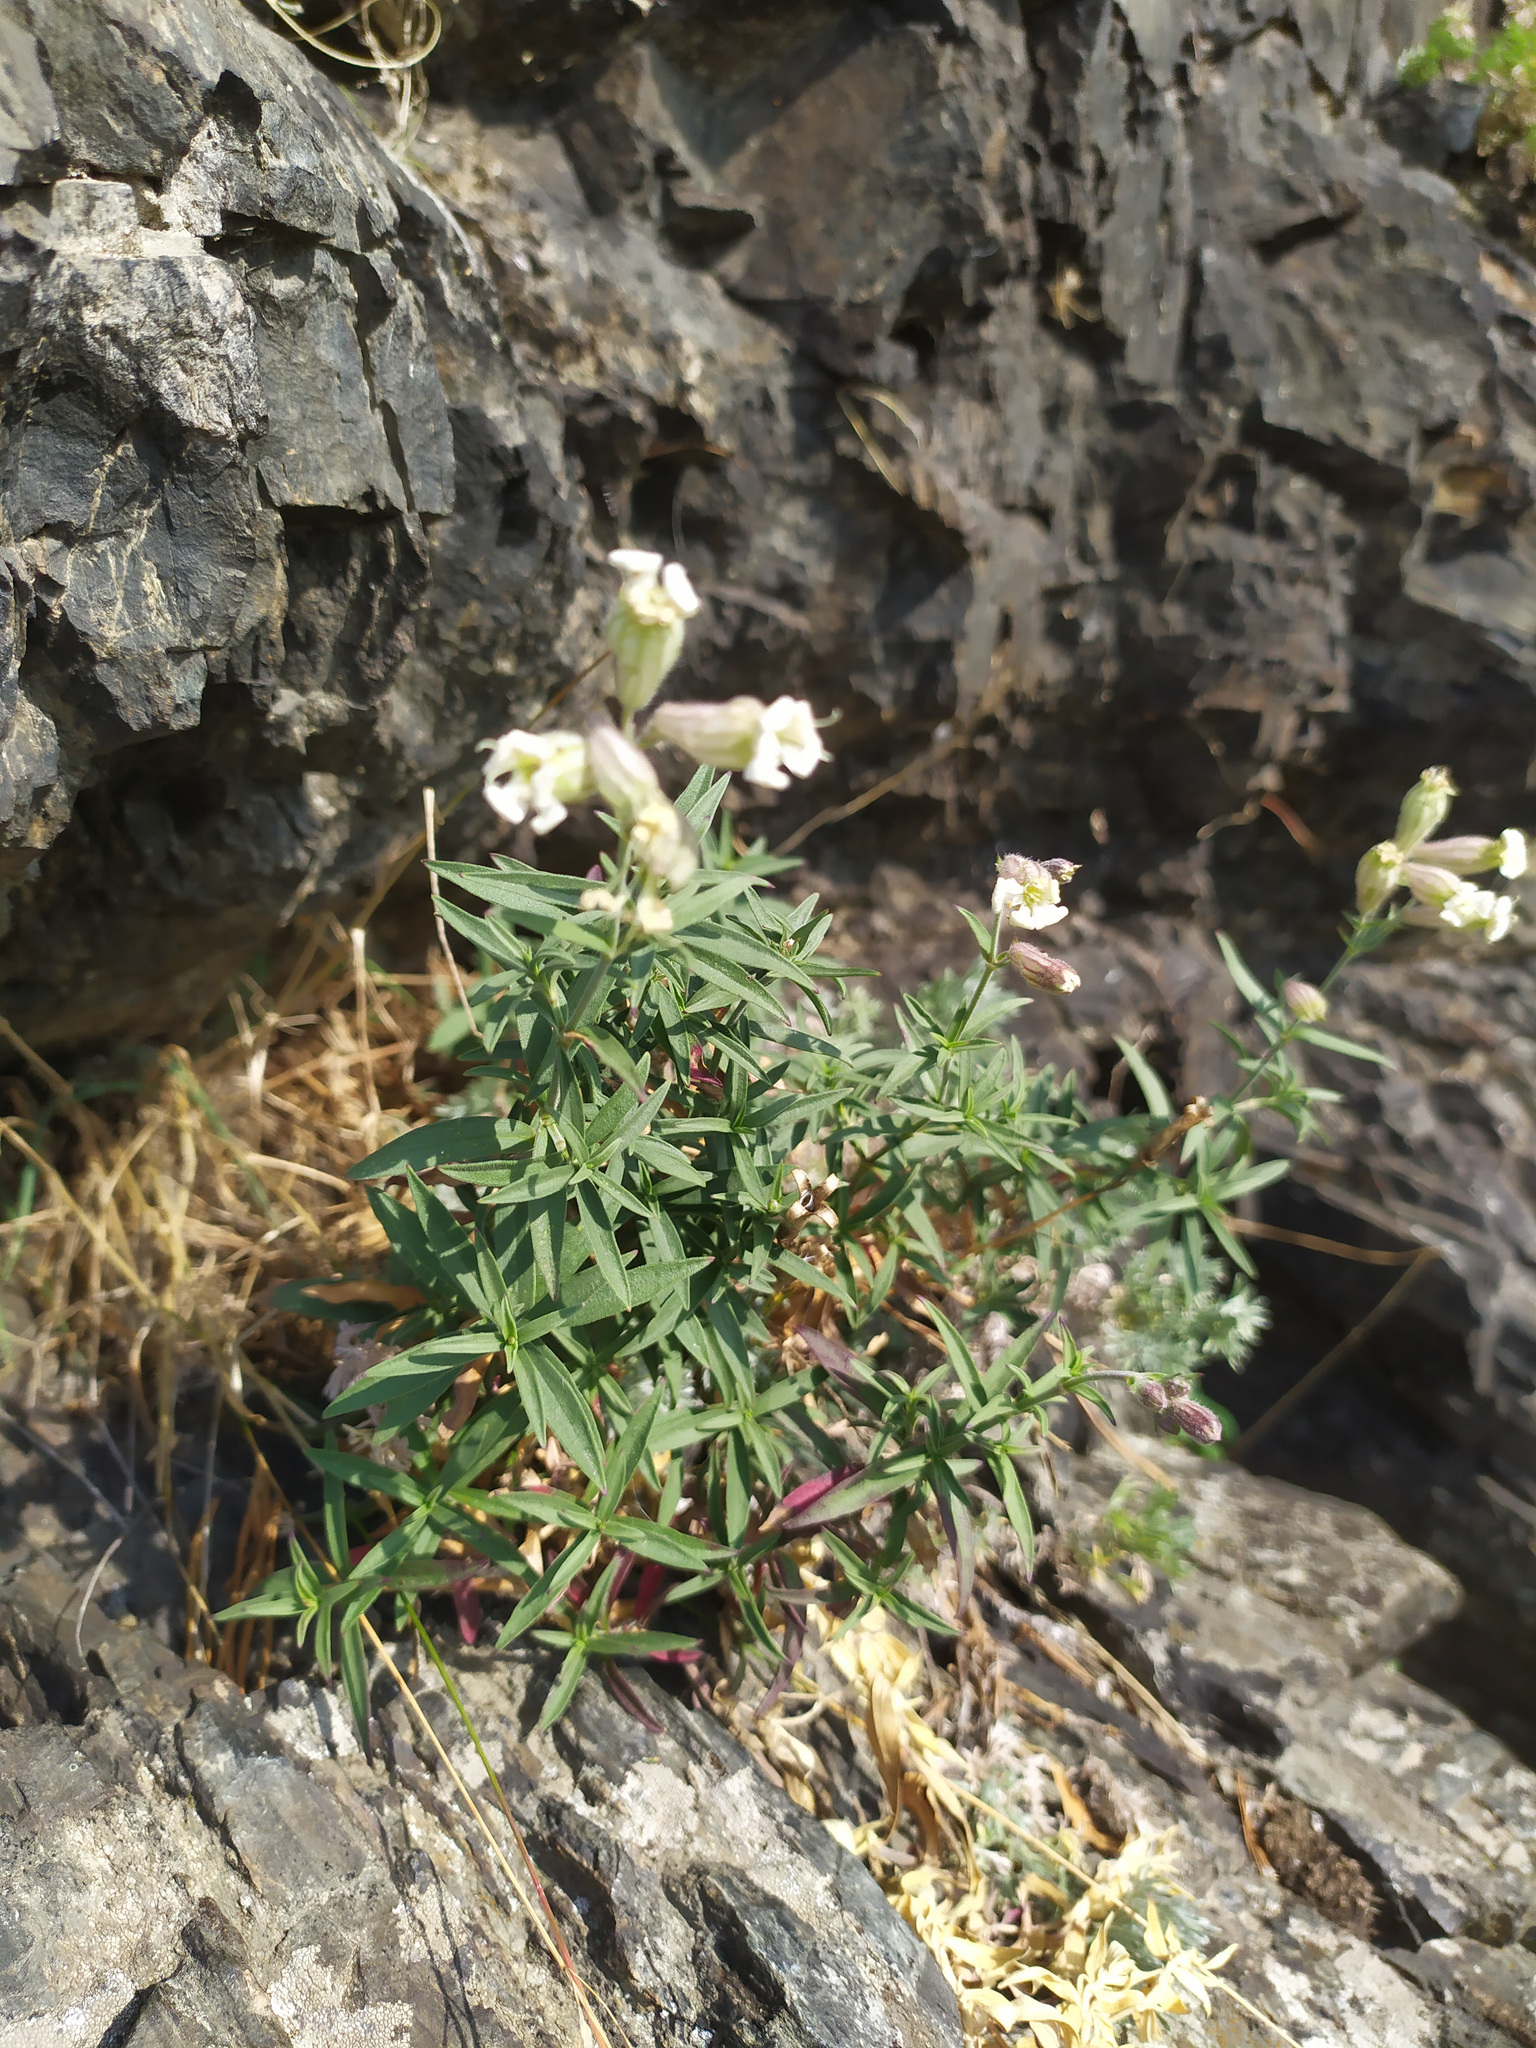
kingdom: Plantae
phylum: Tracheophyta
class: Magnoliopsida
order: Caryophyllales
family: Caryophyllaceae
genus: Silene
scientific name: Silene amoena
